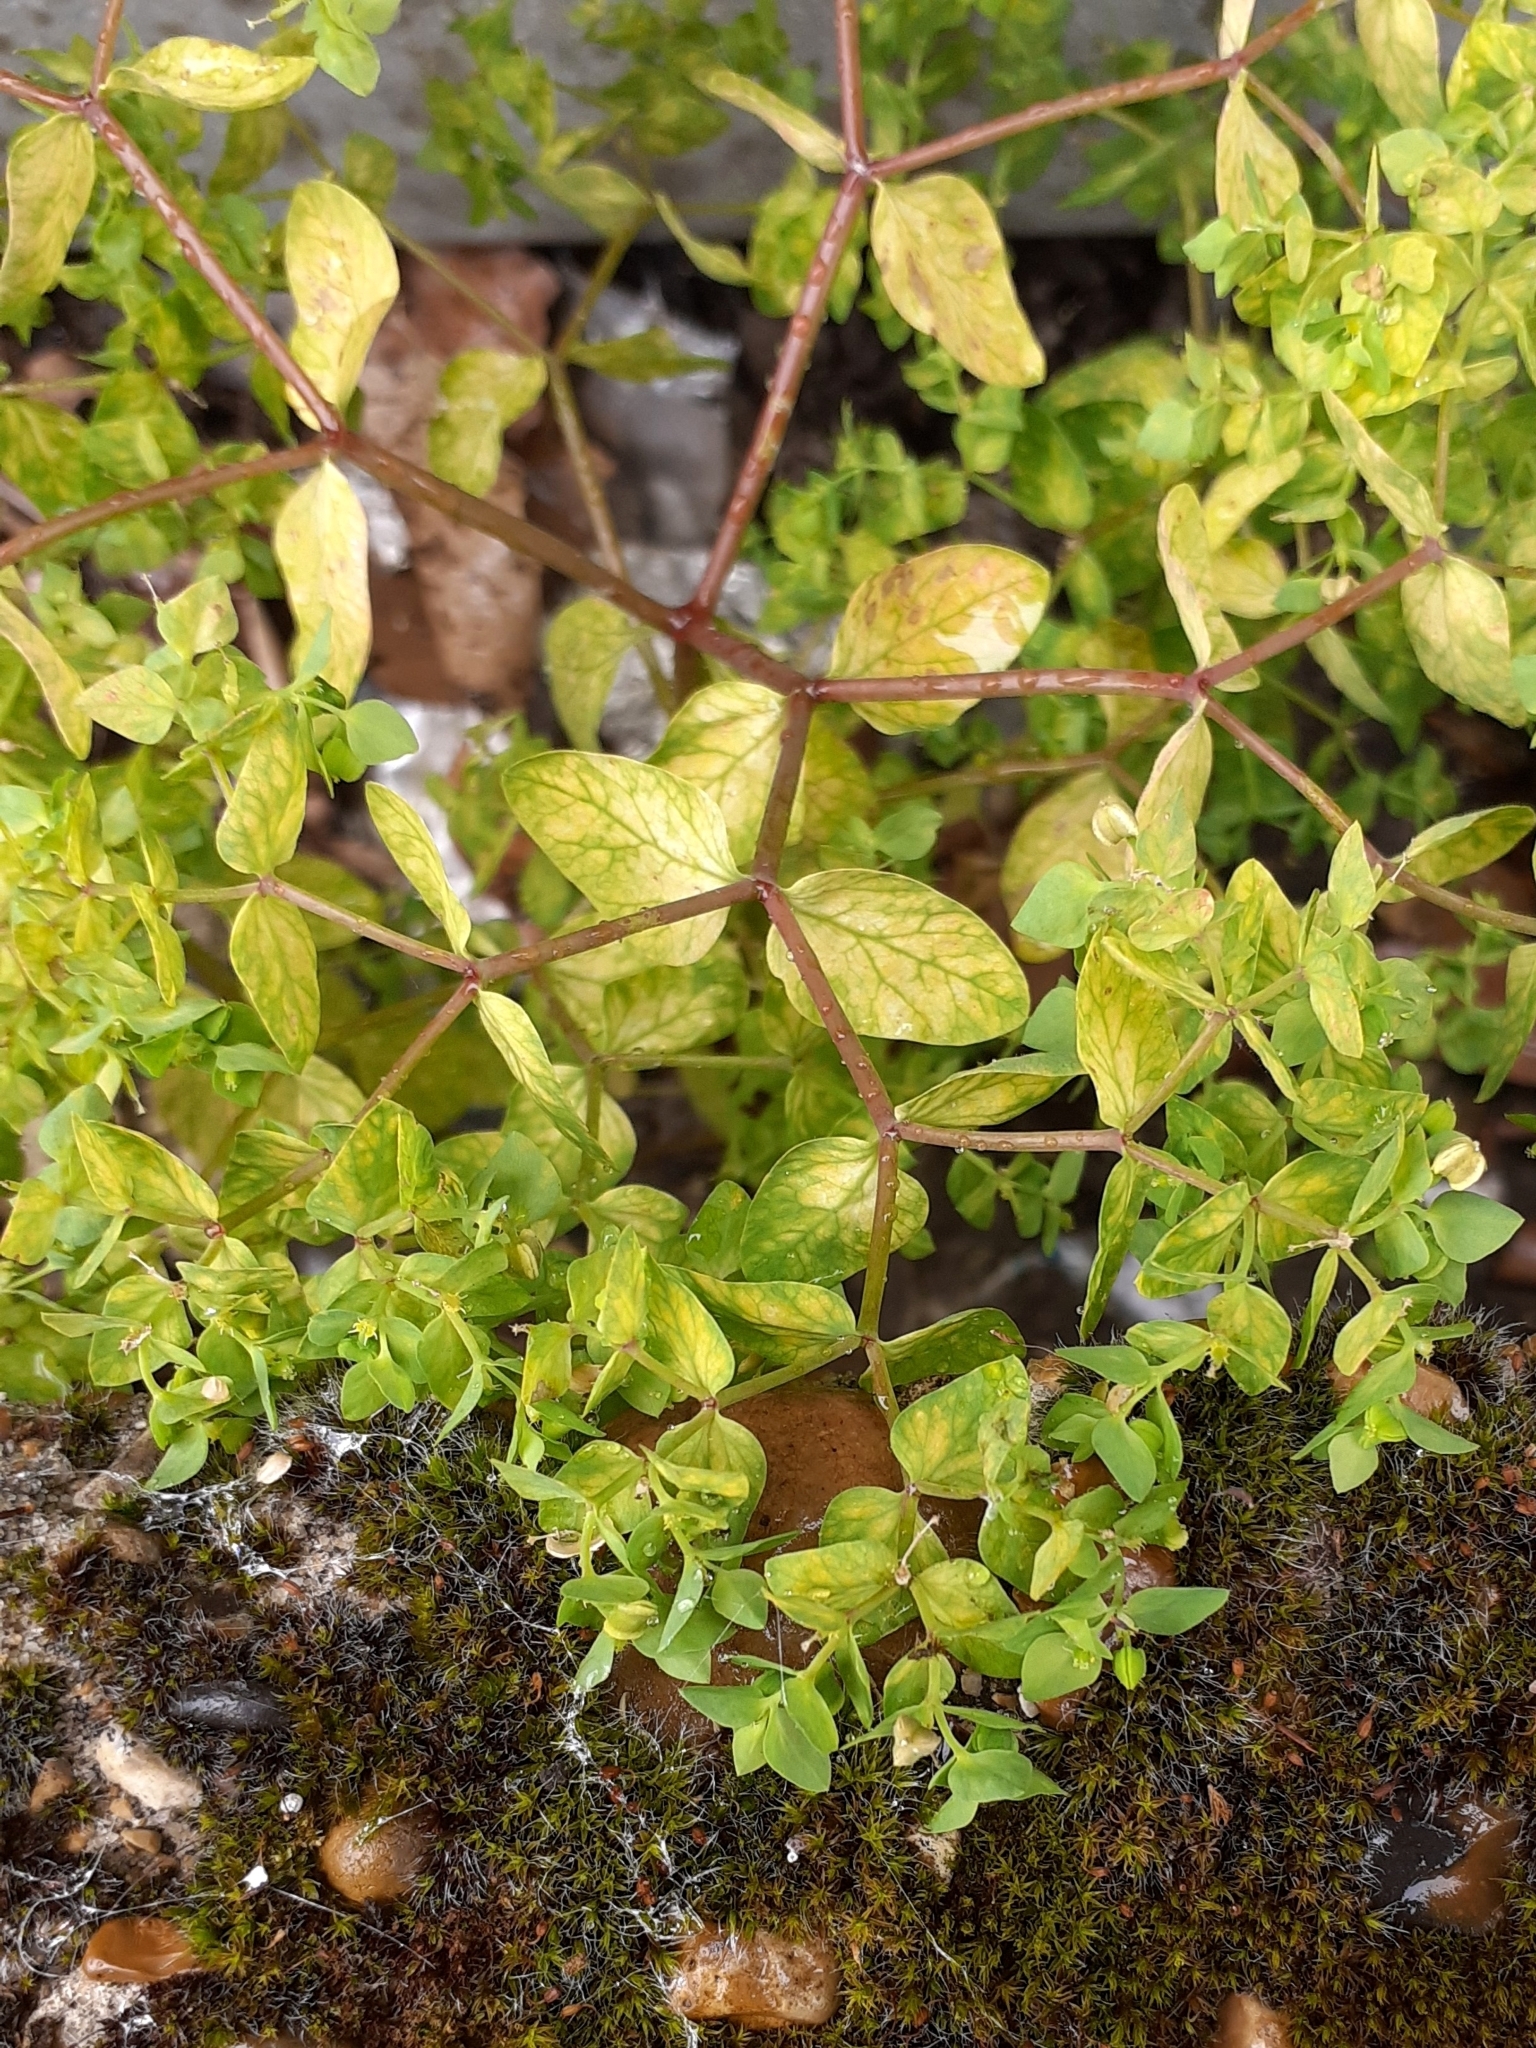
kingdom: Plantae
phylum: Tracheophyta
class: Magnoliopsida
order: Malpighiales
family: Euphorbiaceae
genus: Euphorbia
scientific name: Euphorbia peplus
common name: Petty spurge
